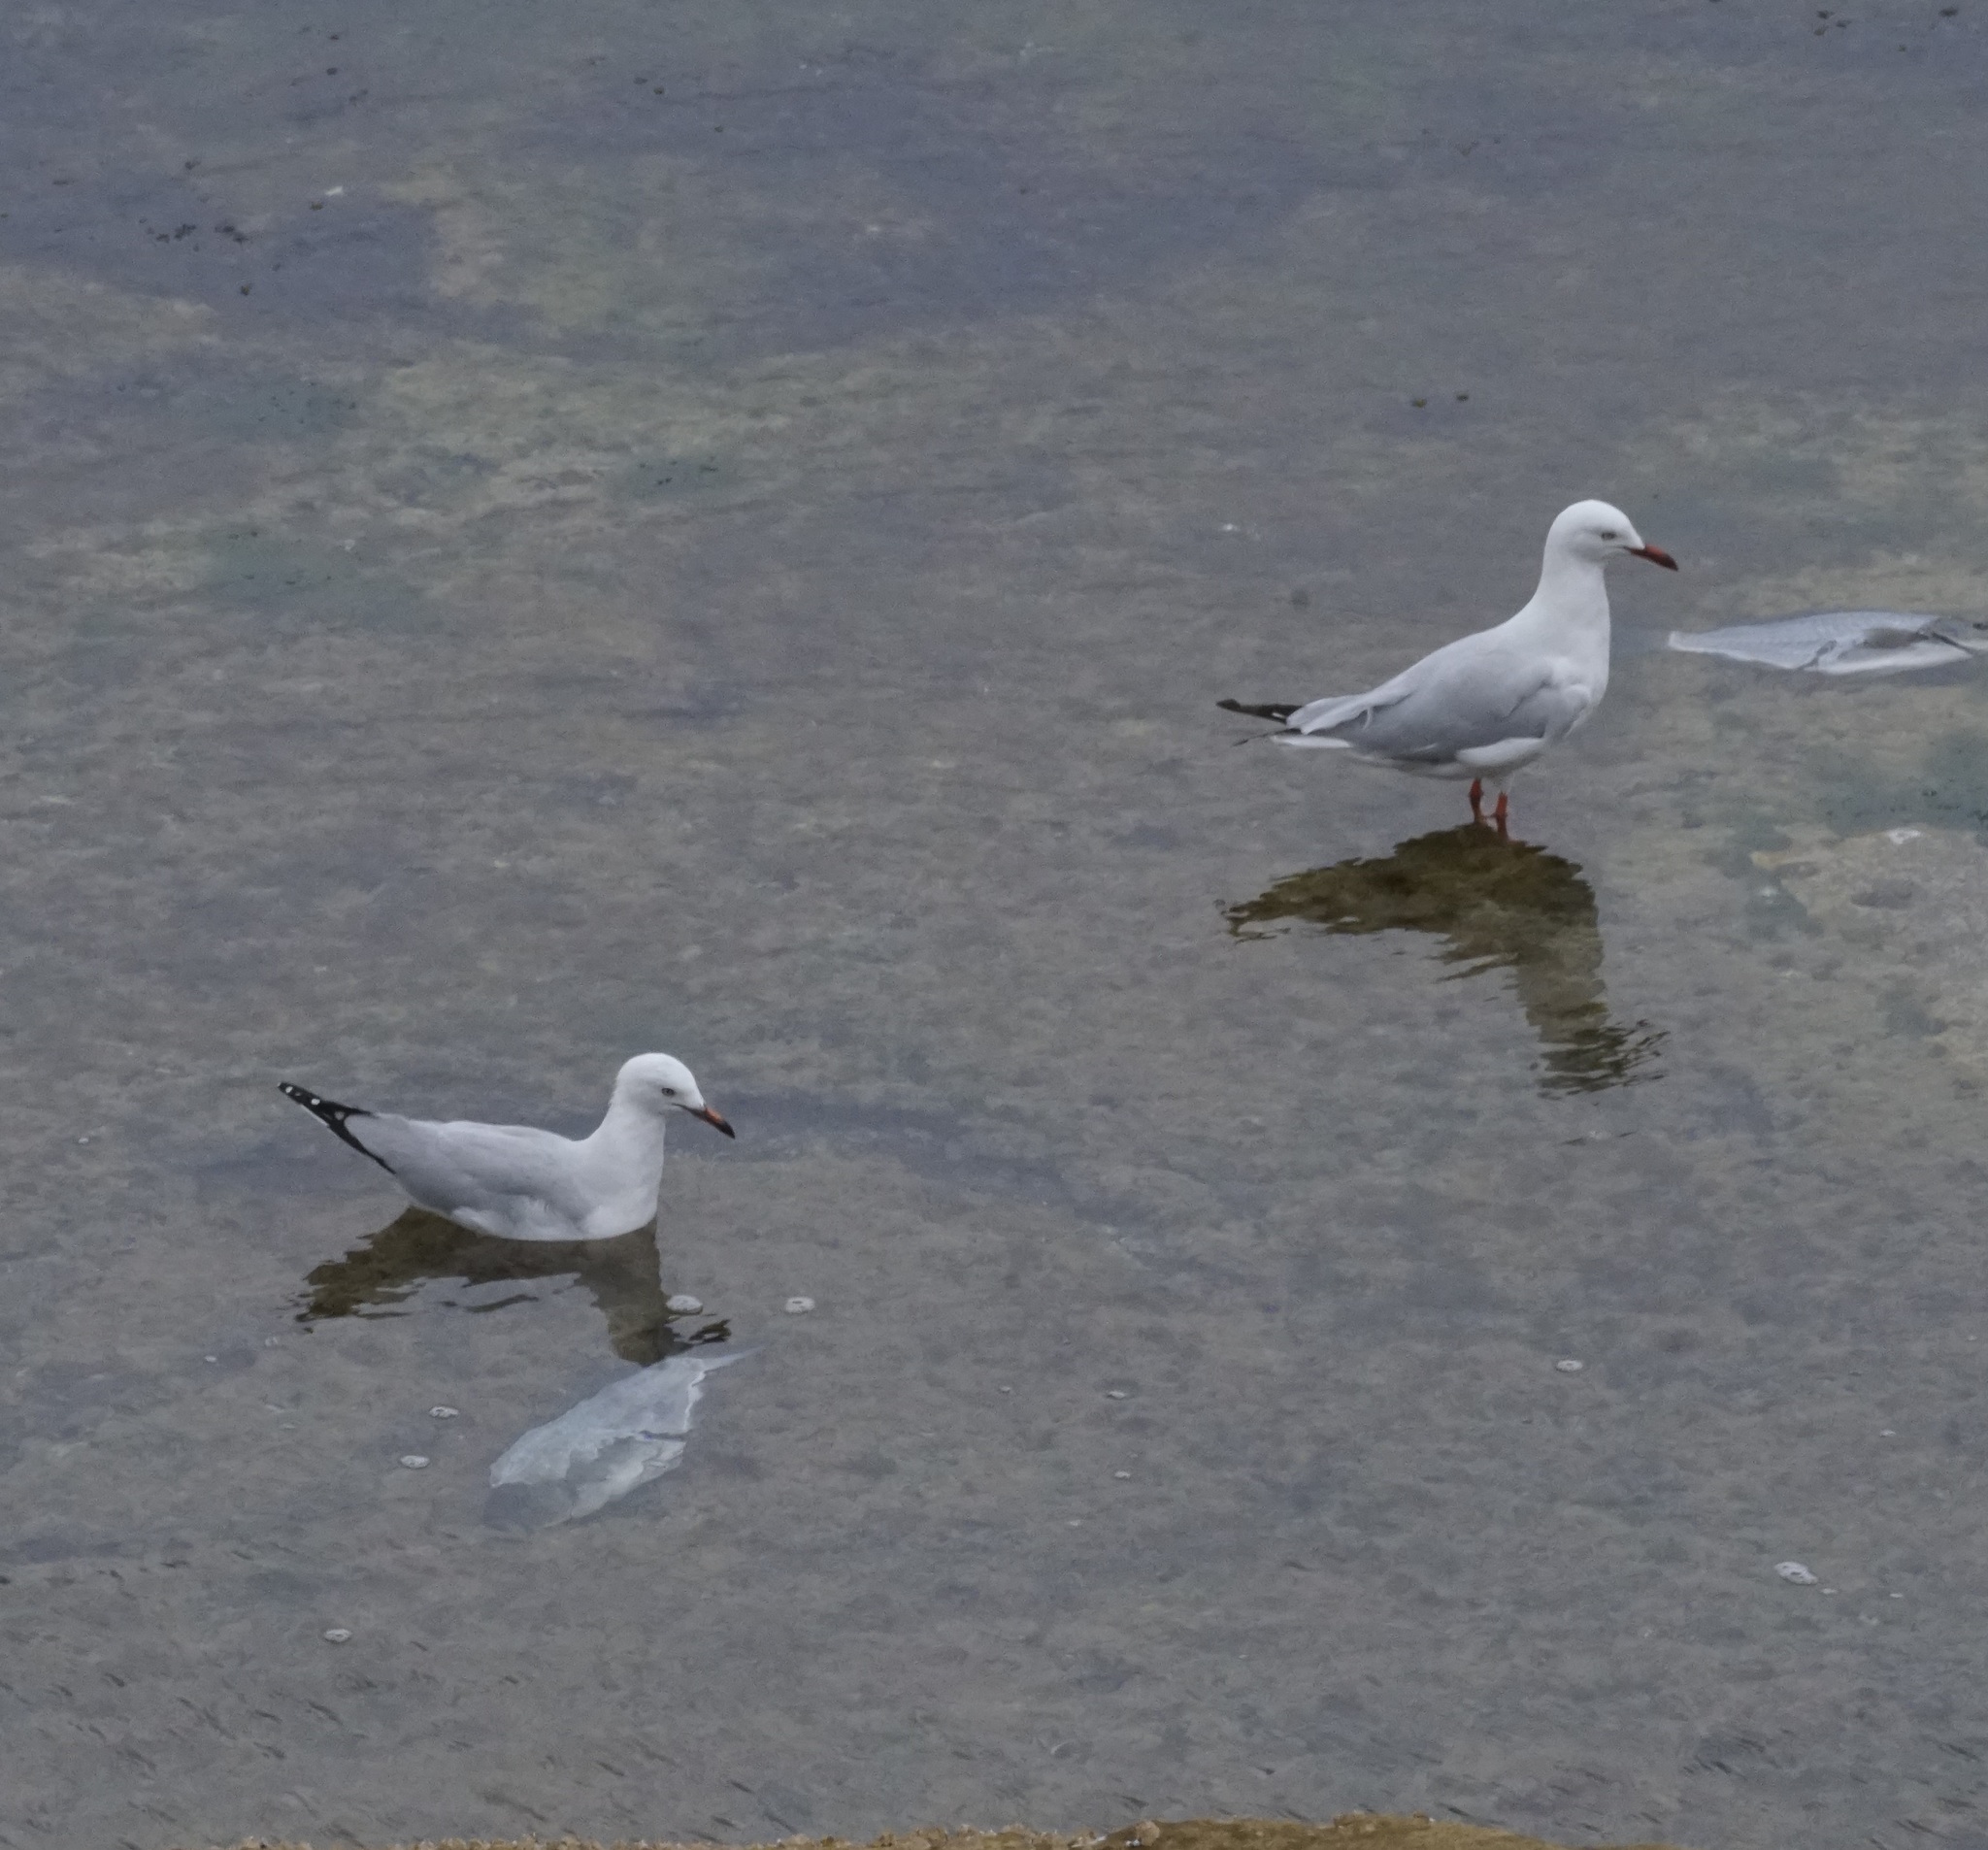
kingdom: Animalia
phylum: Chordata
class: Aves
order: Charadriiformes
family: Laridae
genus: Chroicocephalus
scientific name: Chroicocephalus novaehollandiae
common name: Silver gull
